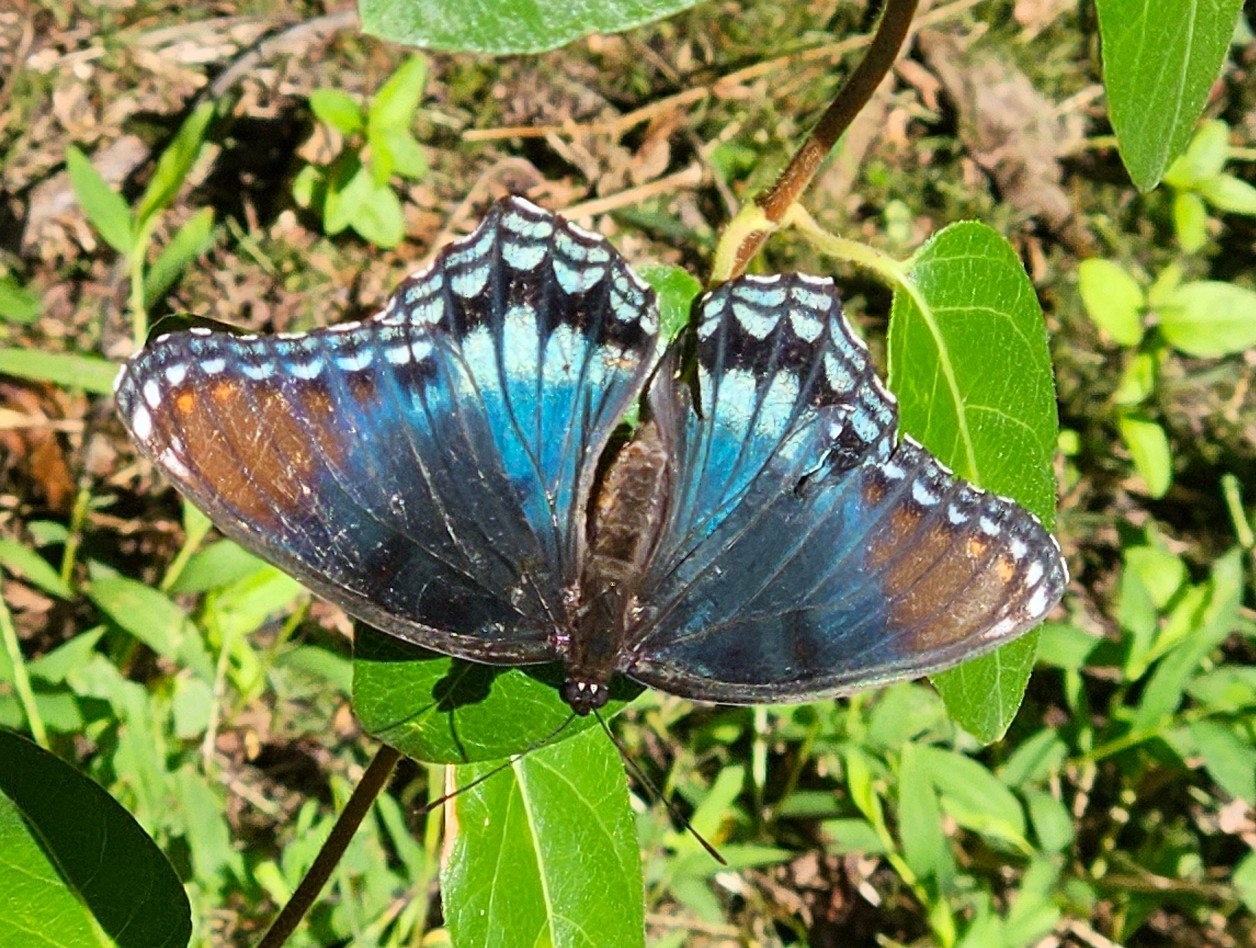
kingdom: Animalia
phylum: Arthropoda
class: Insecta
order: Lepidoptera
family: Nymphalidae
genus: Limenitis
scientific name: Limenitis astyanax
